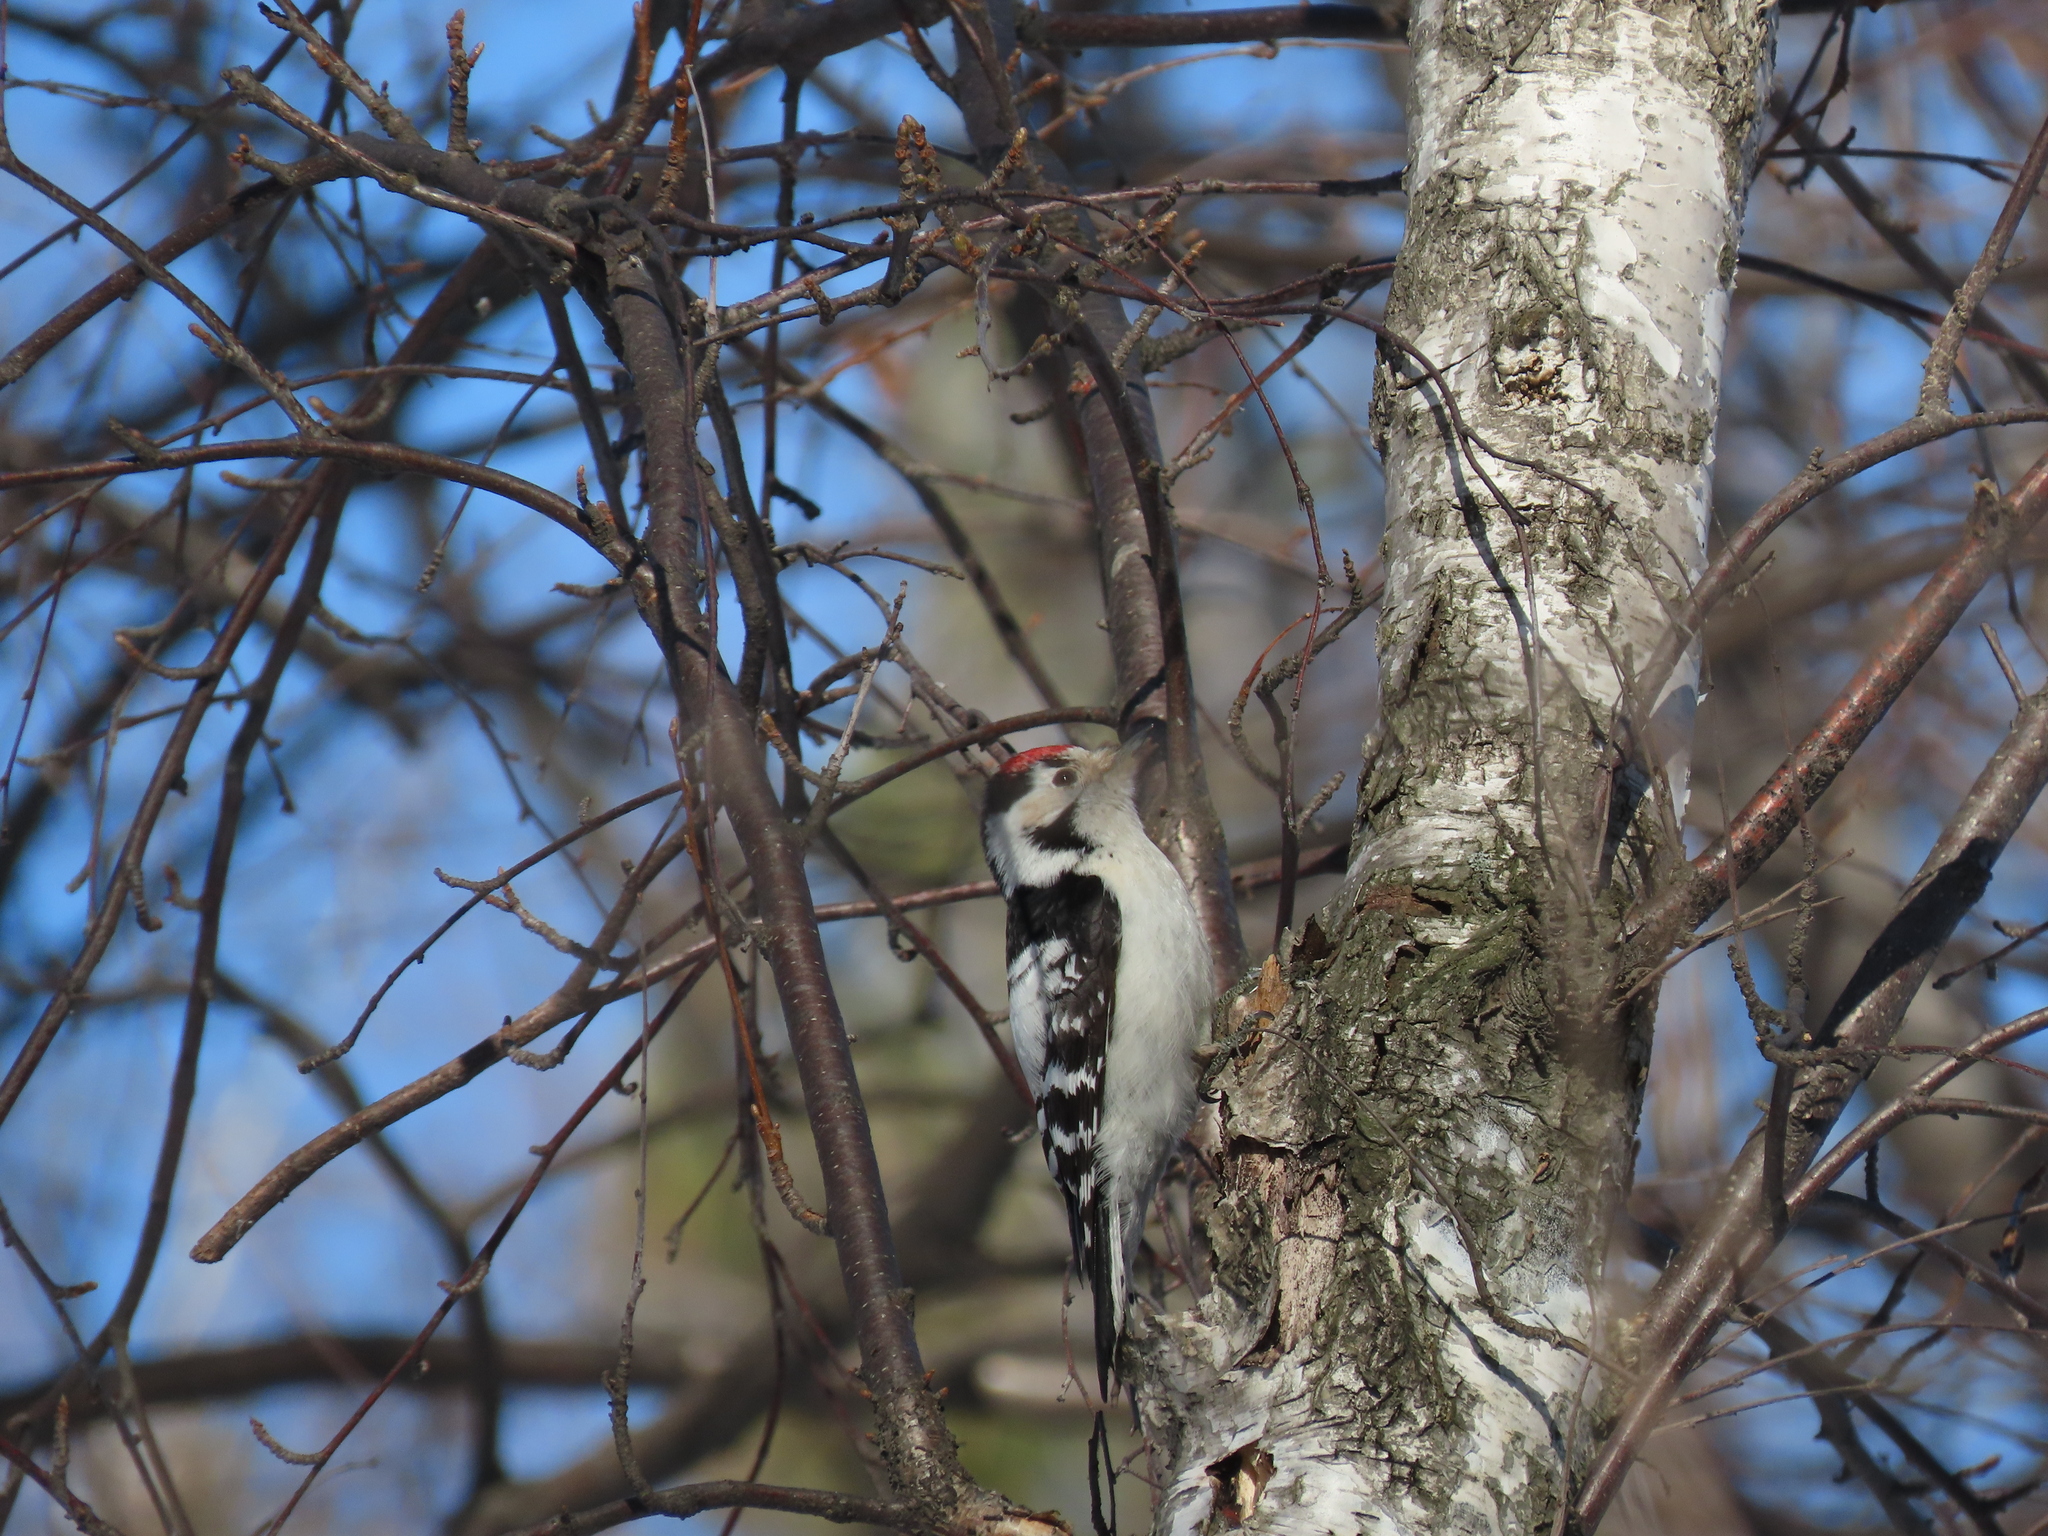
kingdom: Animalia
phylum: Chordata
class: Aves
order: Piciformes
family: Picidae
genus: Dryobates
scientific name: Dryobates minor
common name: Lesser spotted woodpecker
